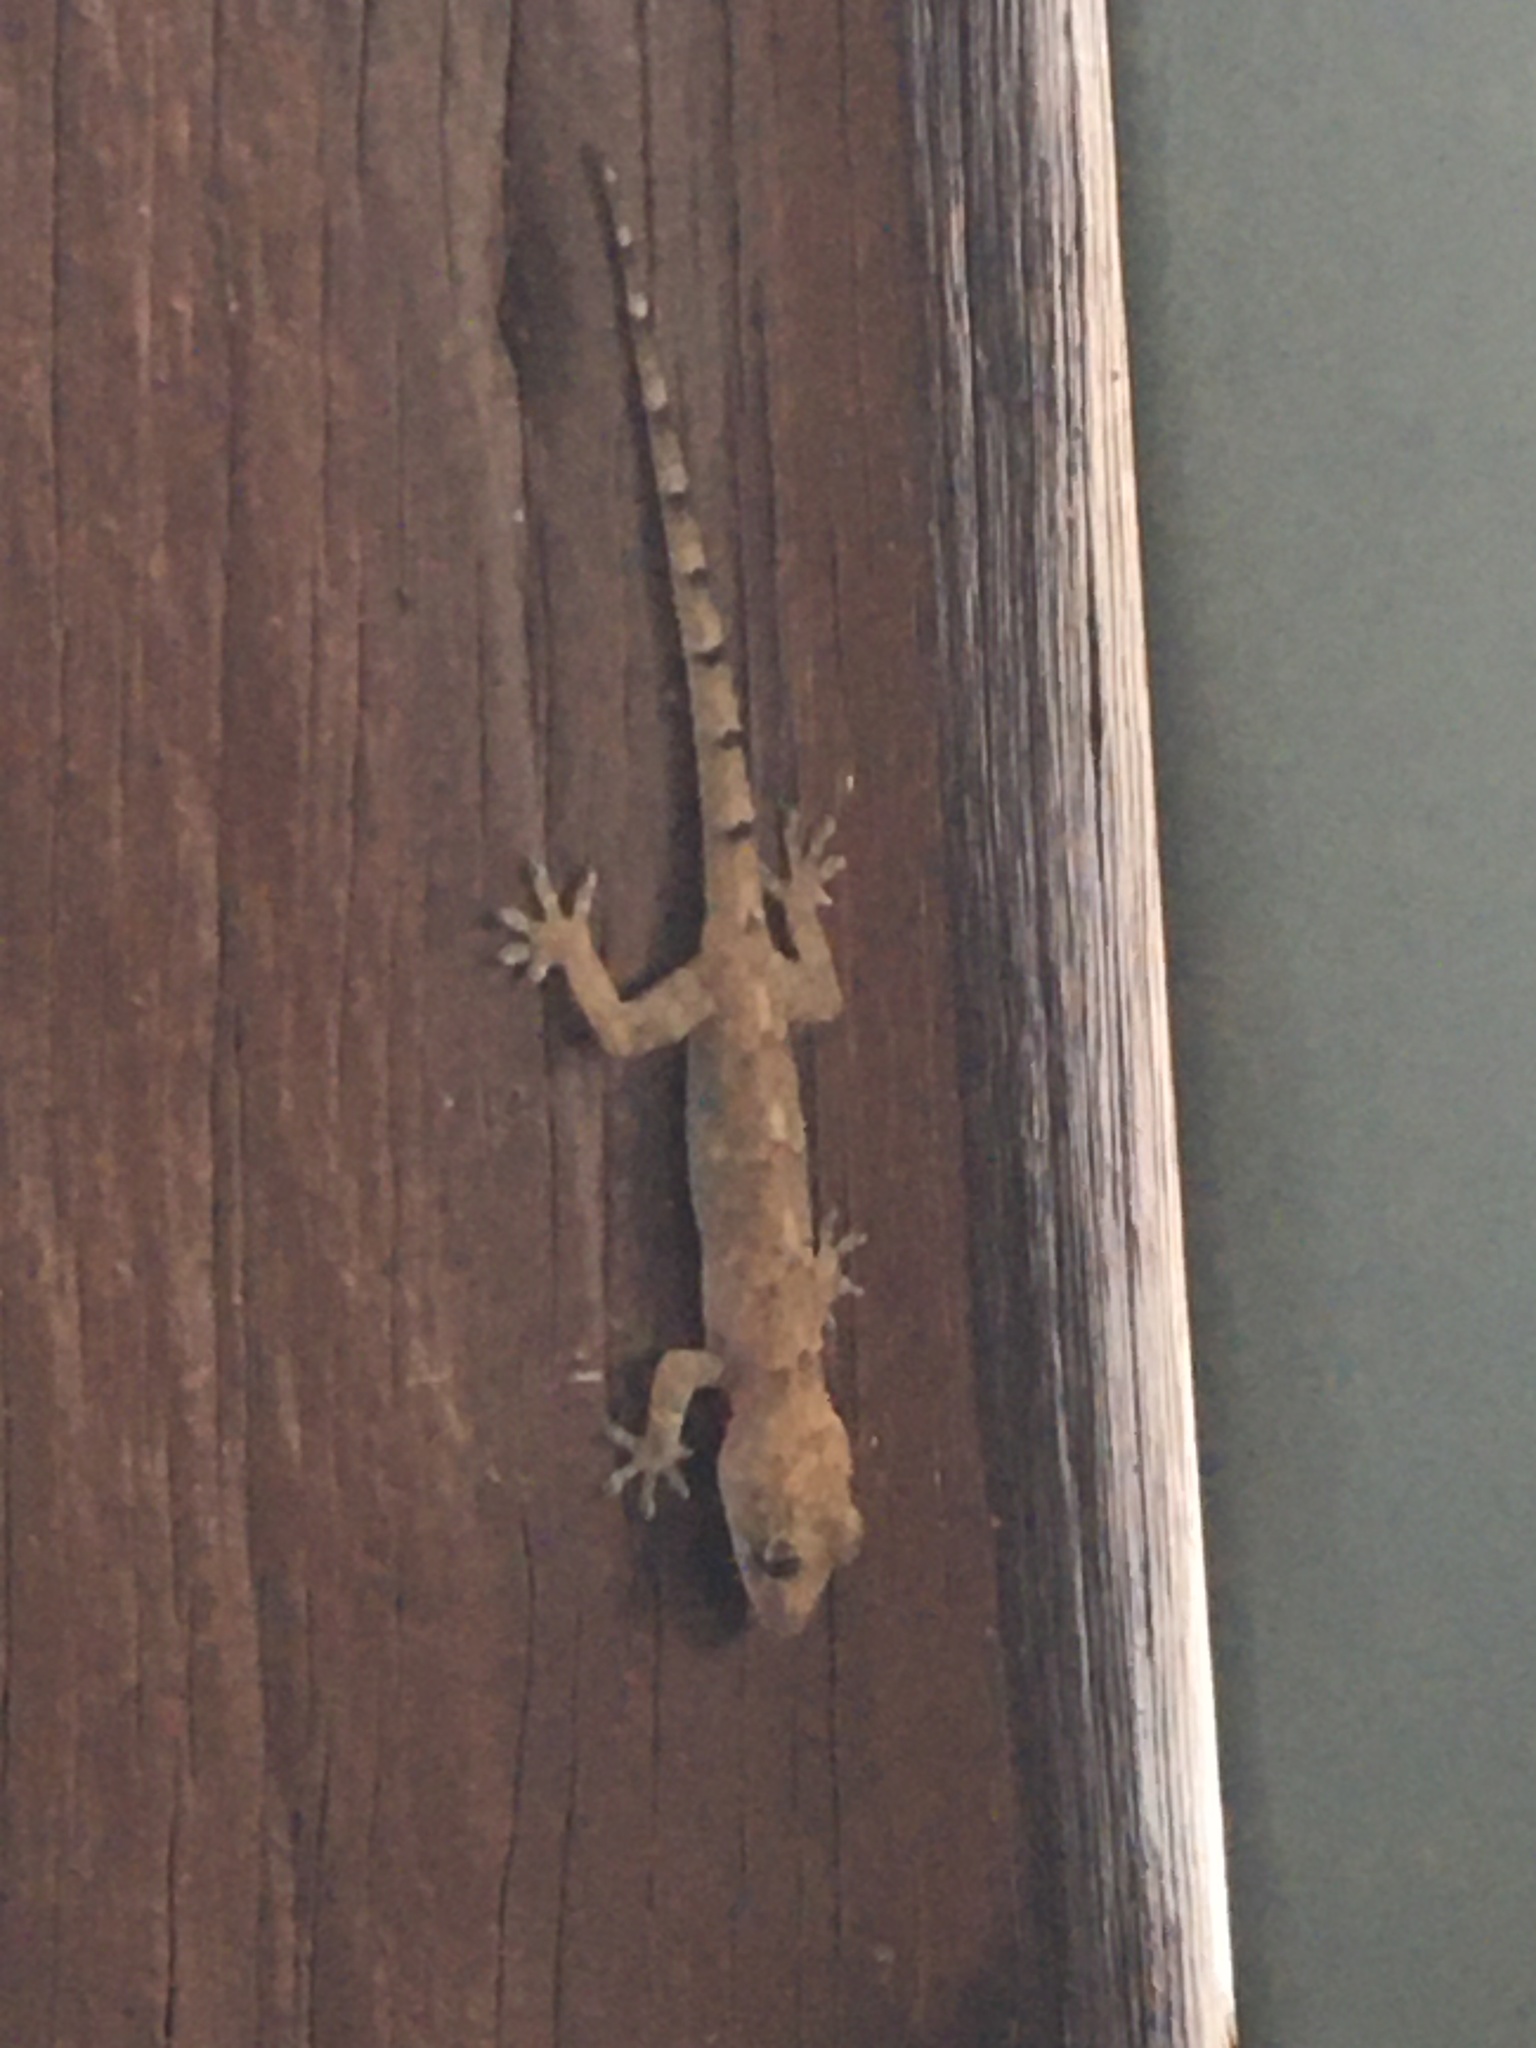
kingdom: Animalia
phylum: Chordata
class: Squamata
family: Gekkonidae
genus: Hemidactylus
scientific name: Hemidactylus mabouia
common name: House gecko
